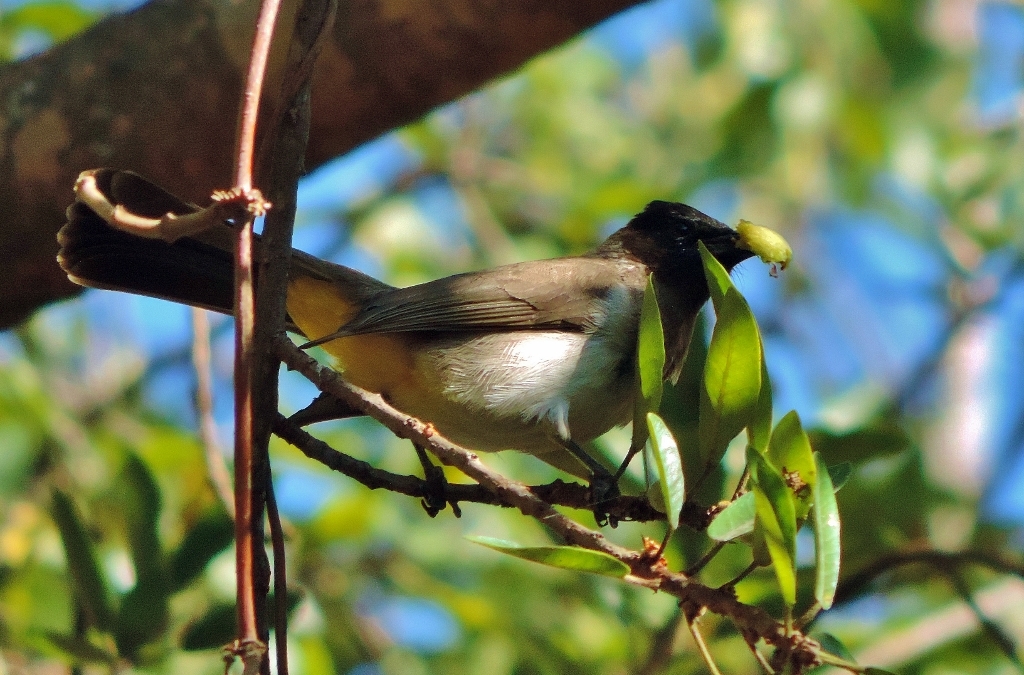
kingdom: Animalia
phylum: Chordata
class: Aves
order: Passeriformes
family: Pycnonotidae
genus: Pycnonotus
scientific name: Pycnonotus barbatus
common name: Common bulbul
